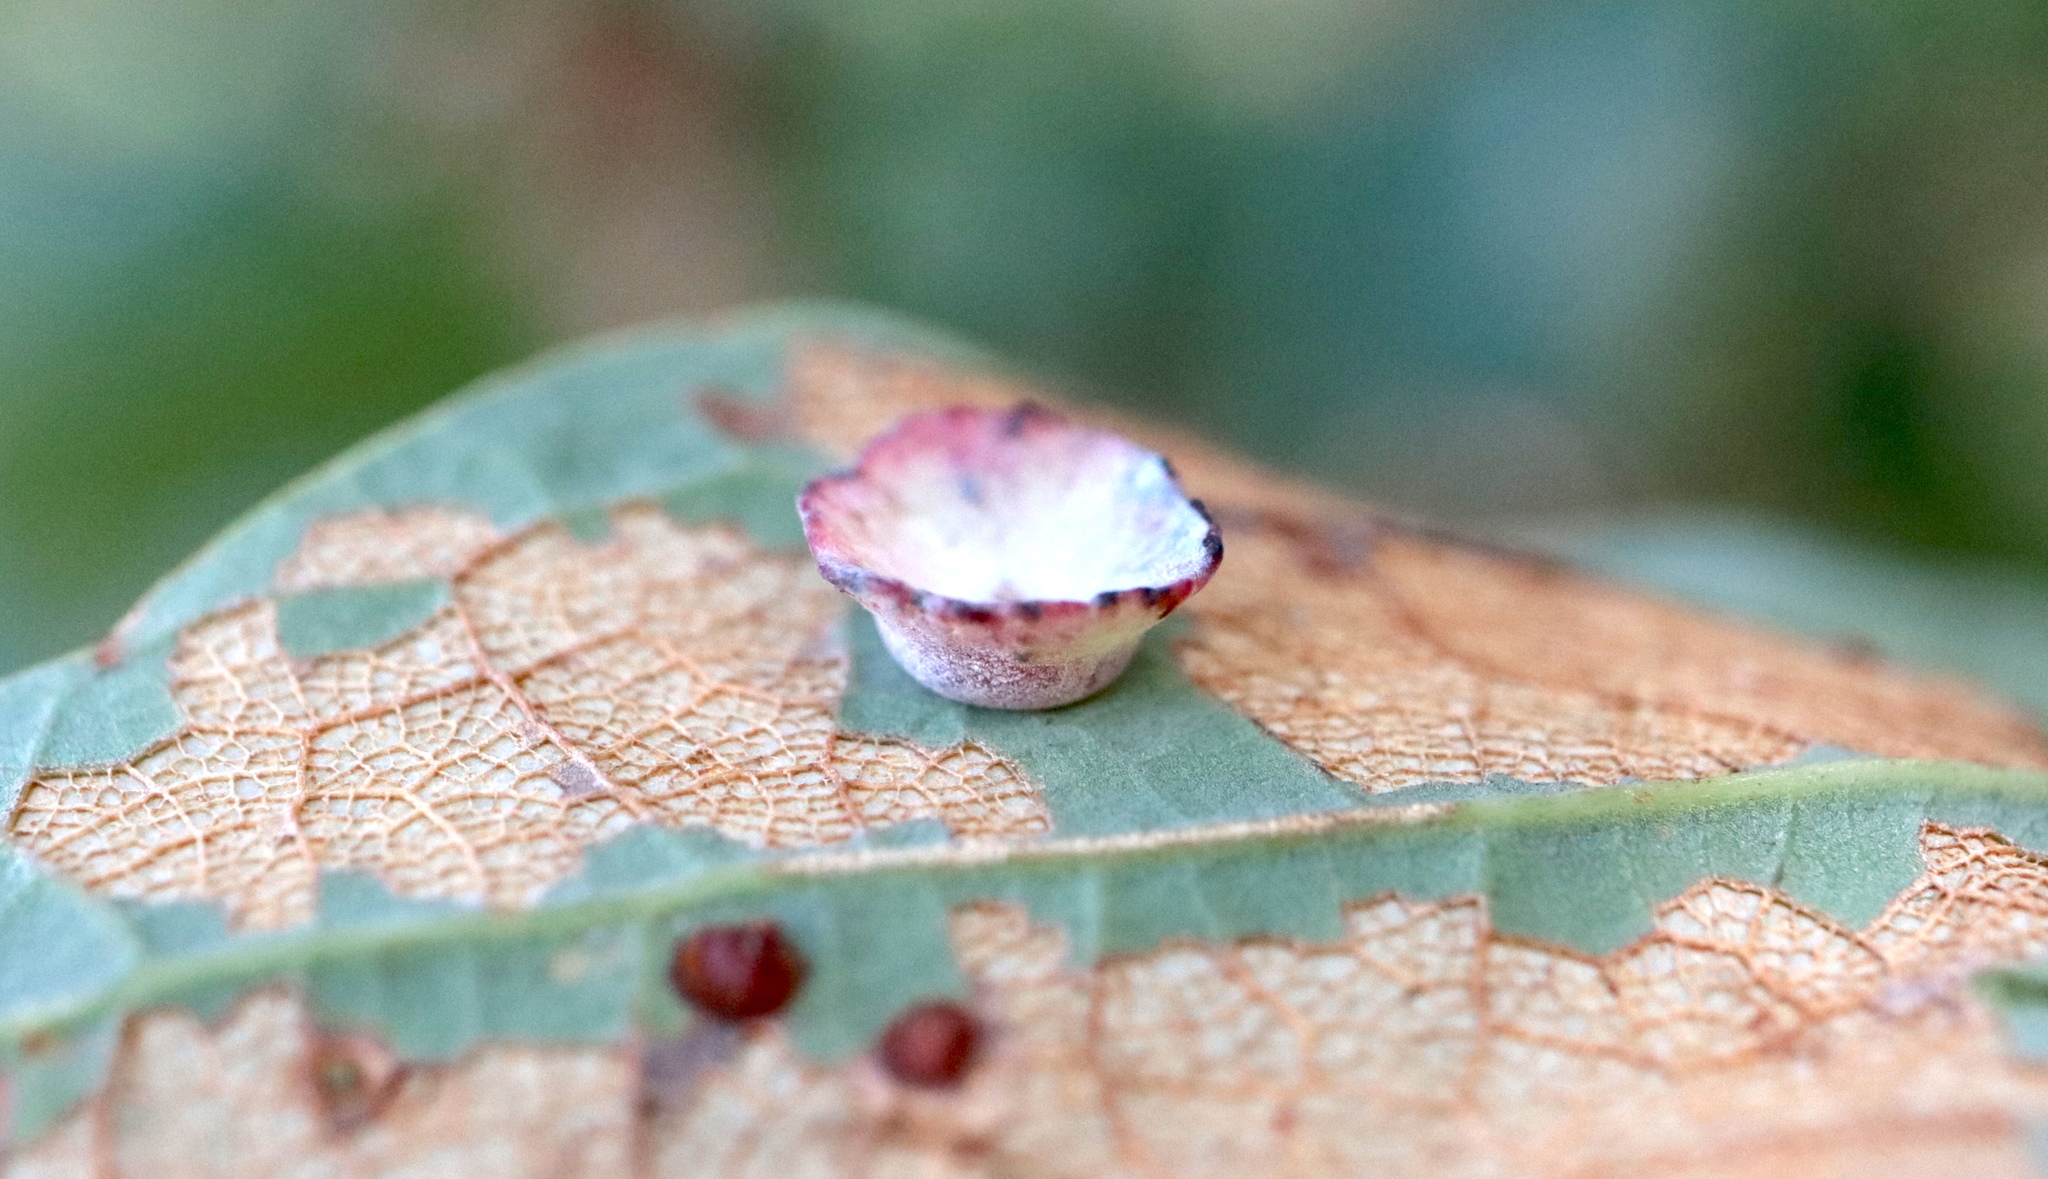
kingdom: Animalia
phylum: Arthropoda
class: Insecta
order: Hymenoptera
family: Cynipidae
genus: Phylloteras
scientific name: Phylloteras poculum
